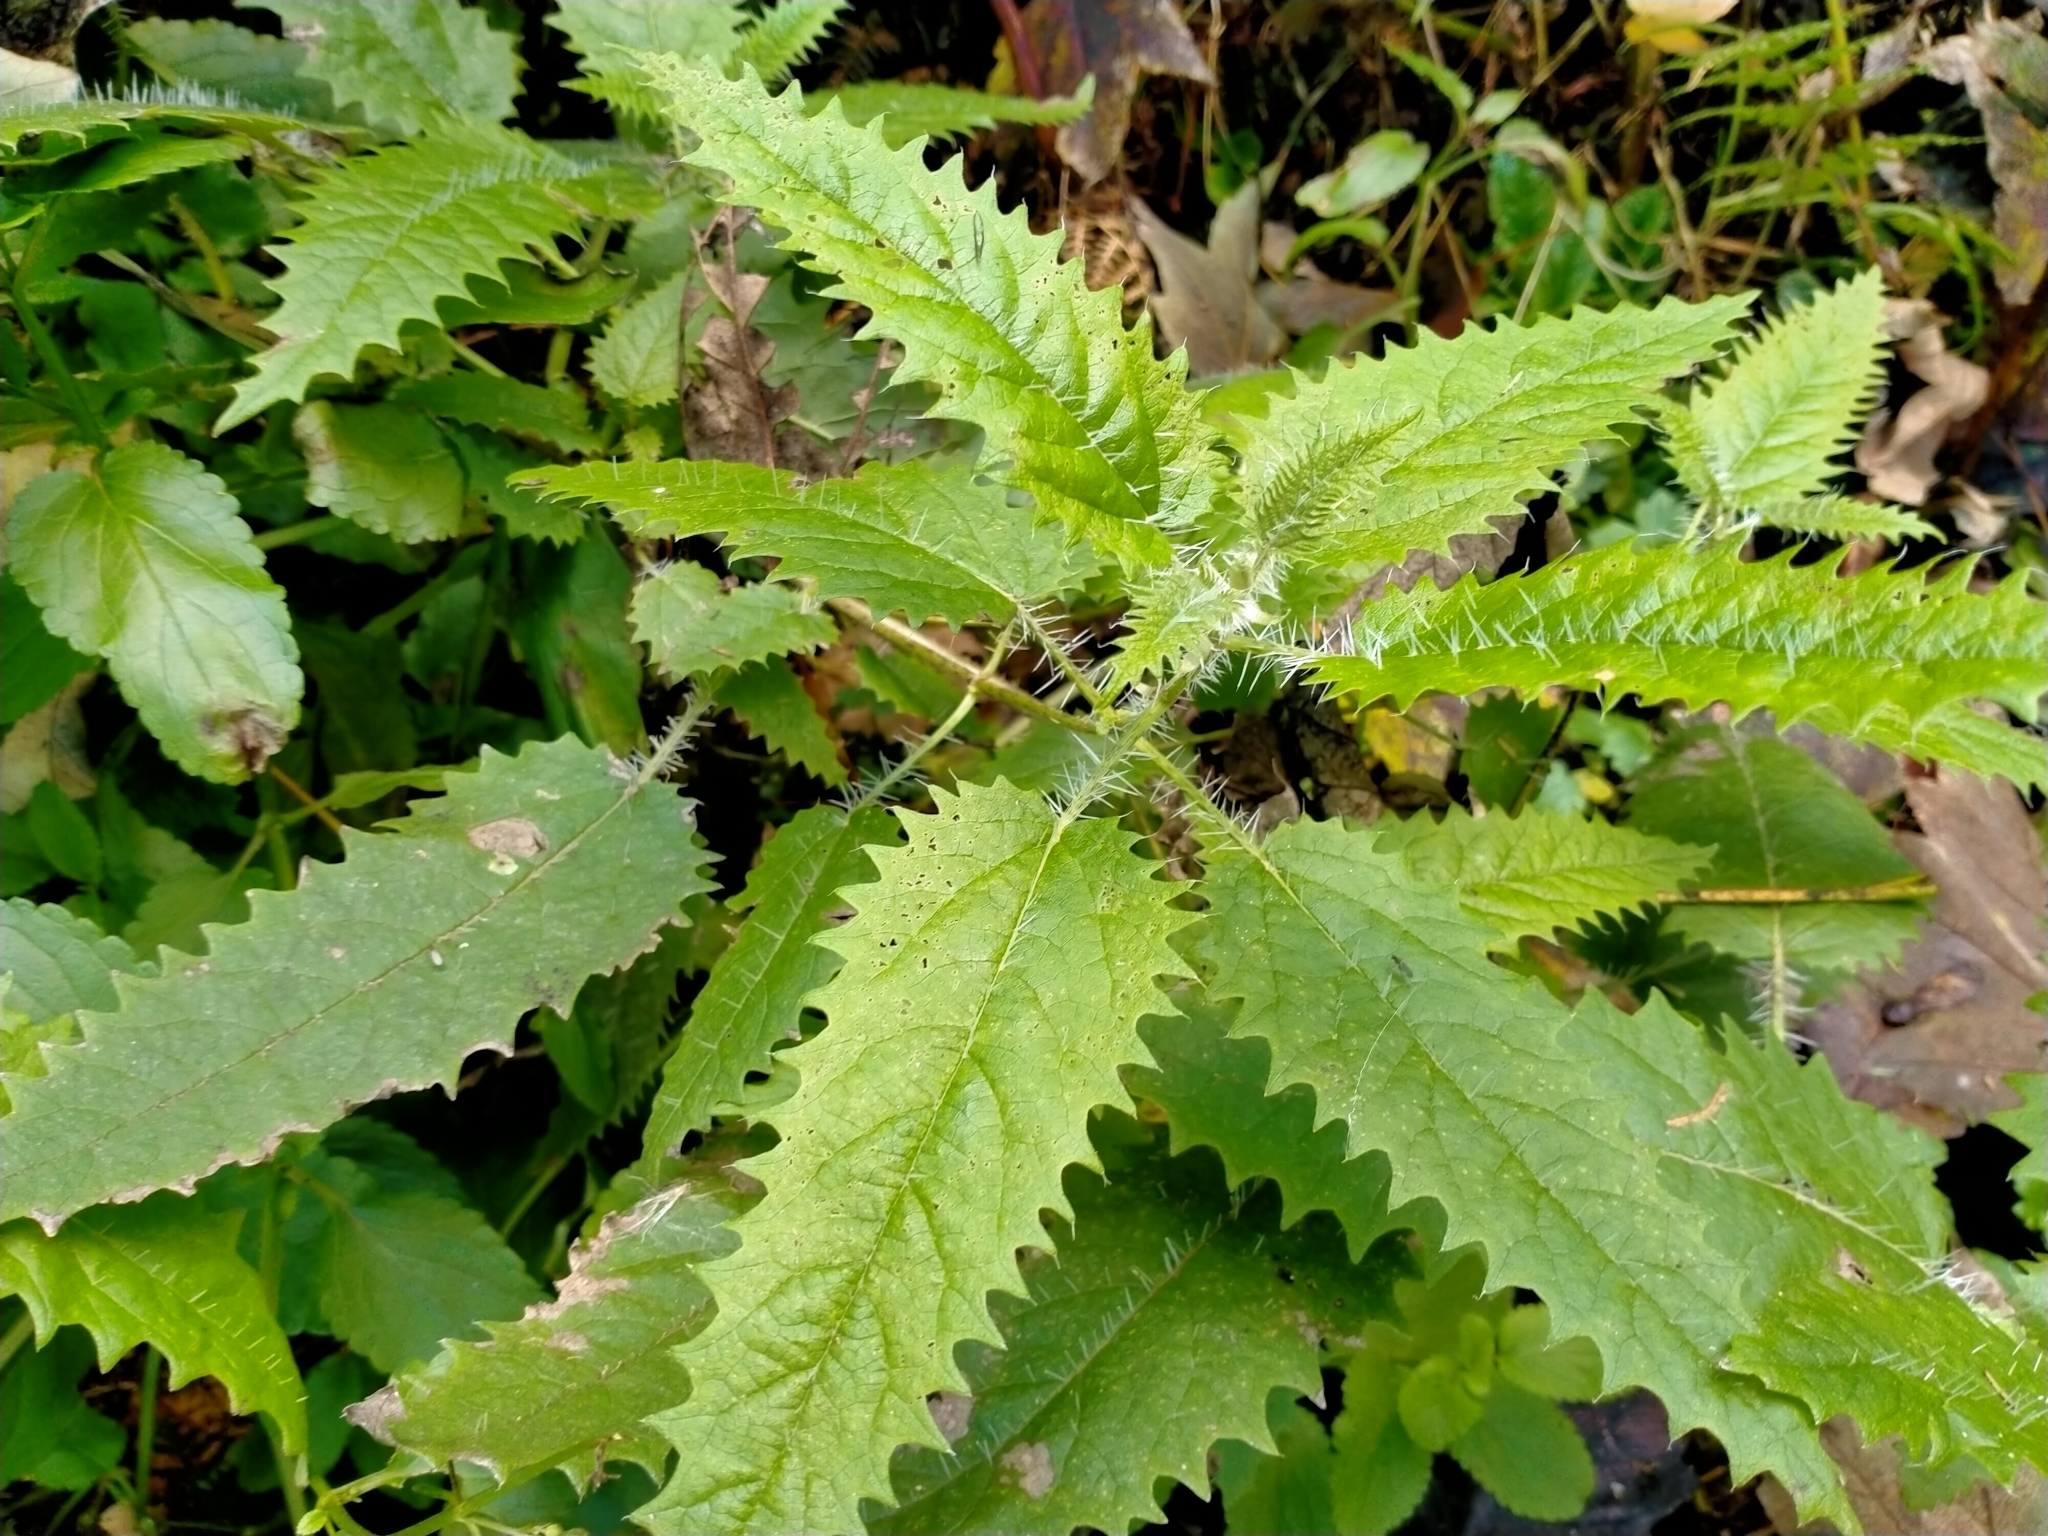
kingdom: Plantae
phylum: Tracheophyta
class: Magnoliopsida
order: Rosales
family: Urticaceae
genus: Urtica
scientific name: Urtica ferox
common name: Tree nettle
